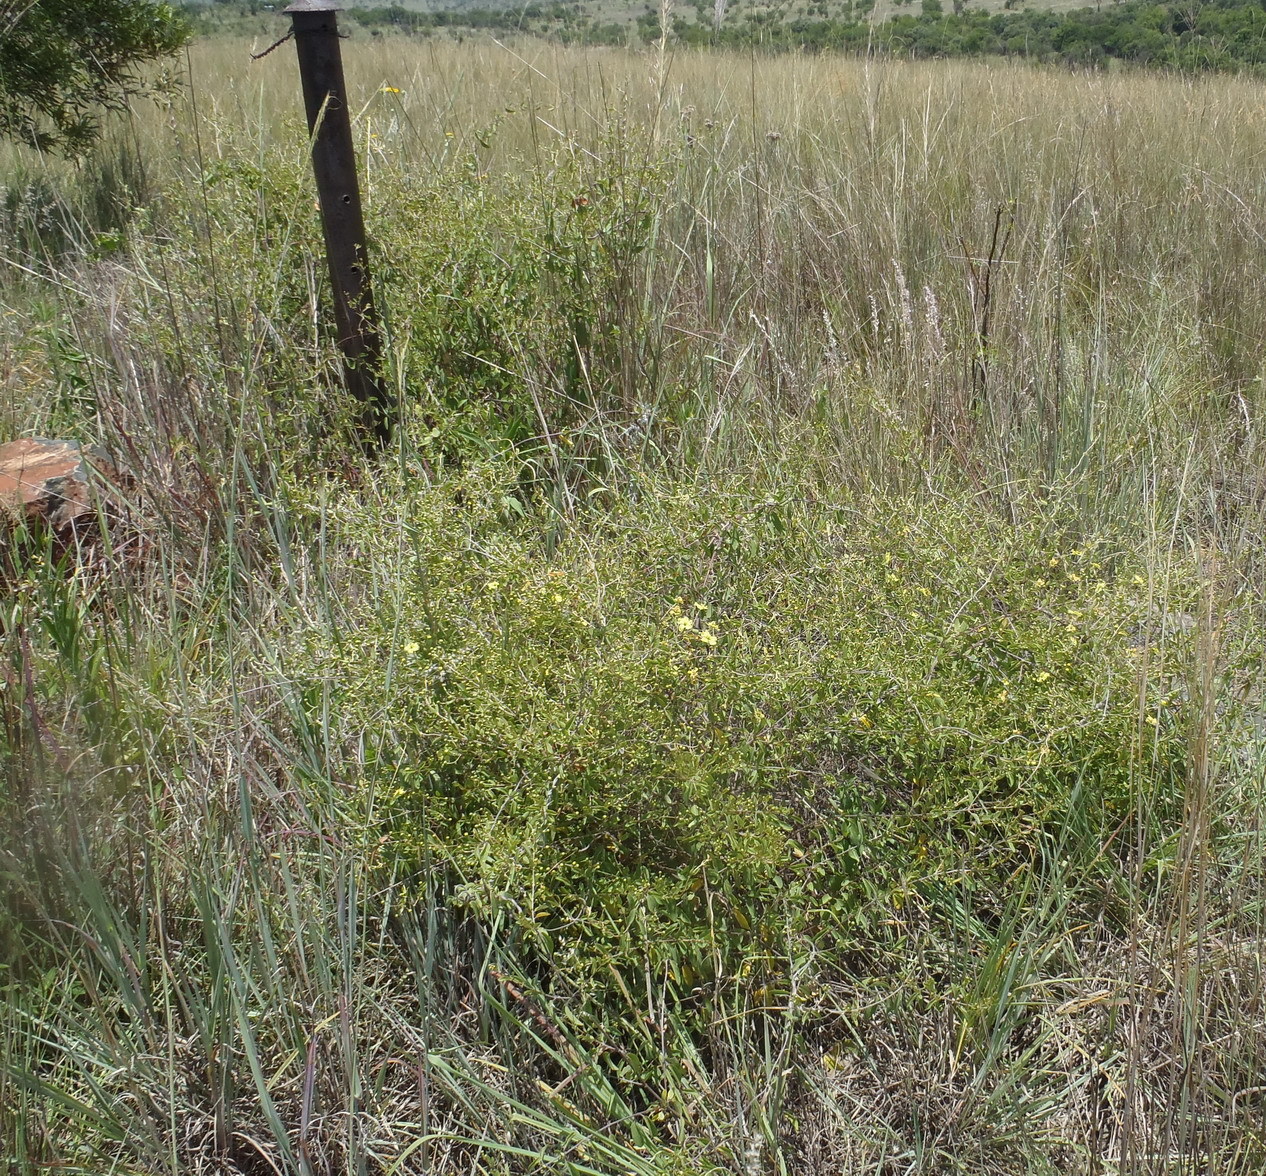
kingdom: Plantae
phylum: Tracheophyta
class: Magnoliopsida
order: Malpighiales
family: Malpighiaceae
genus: Sphedamnocarpus
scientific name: Sphedamnocarpus galphimiifolius
